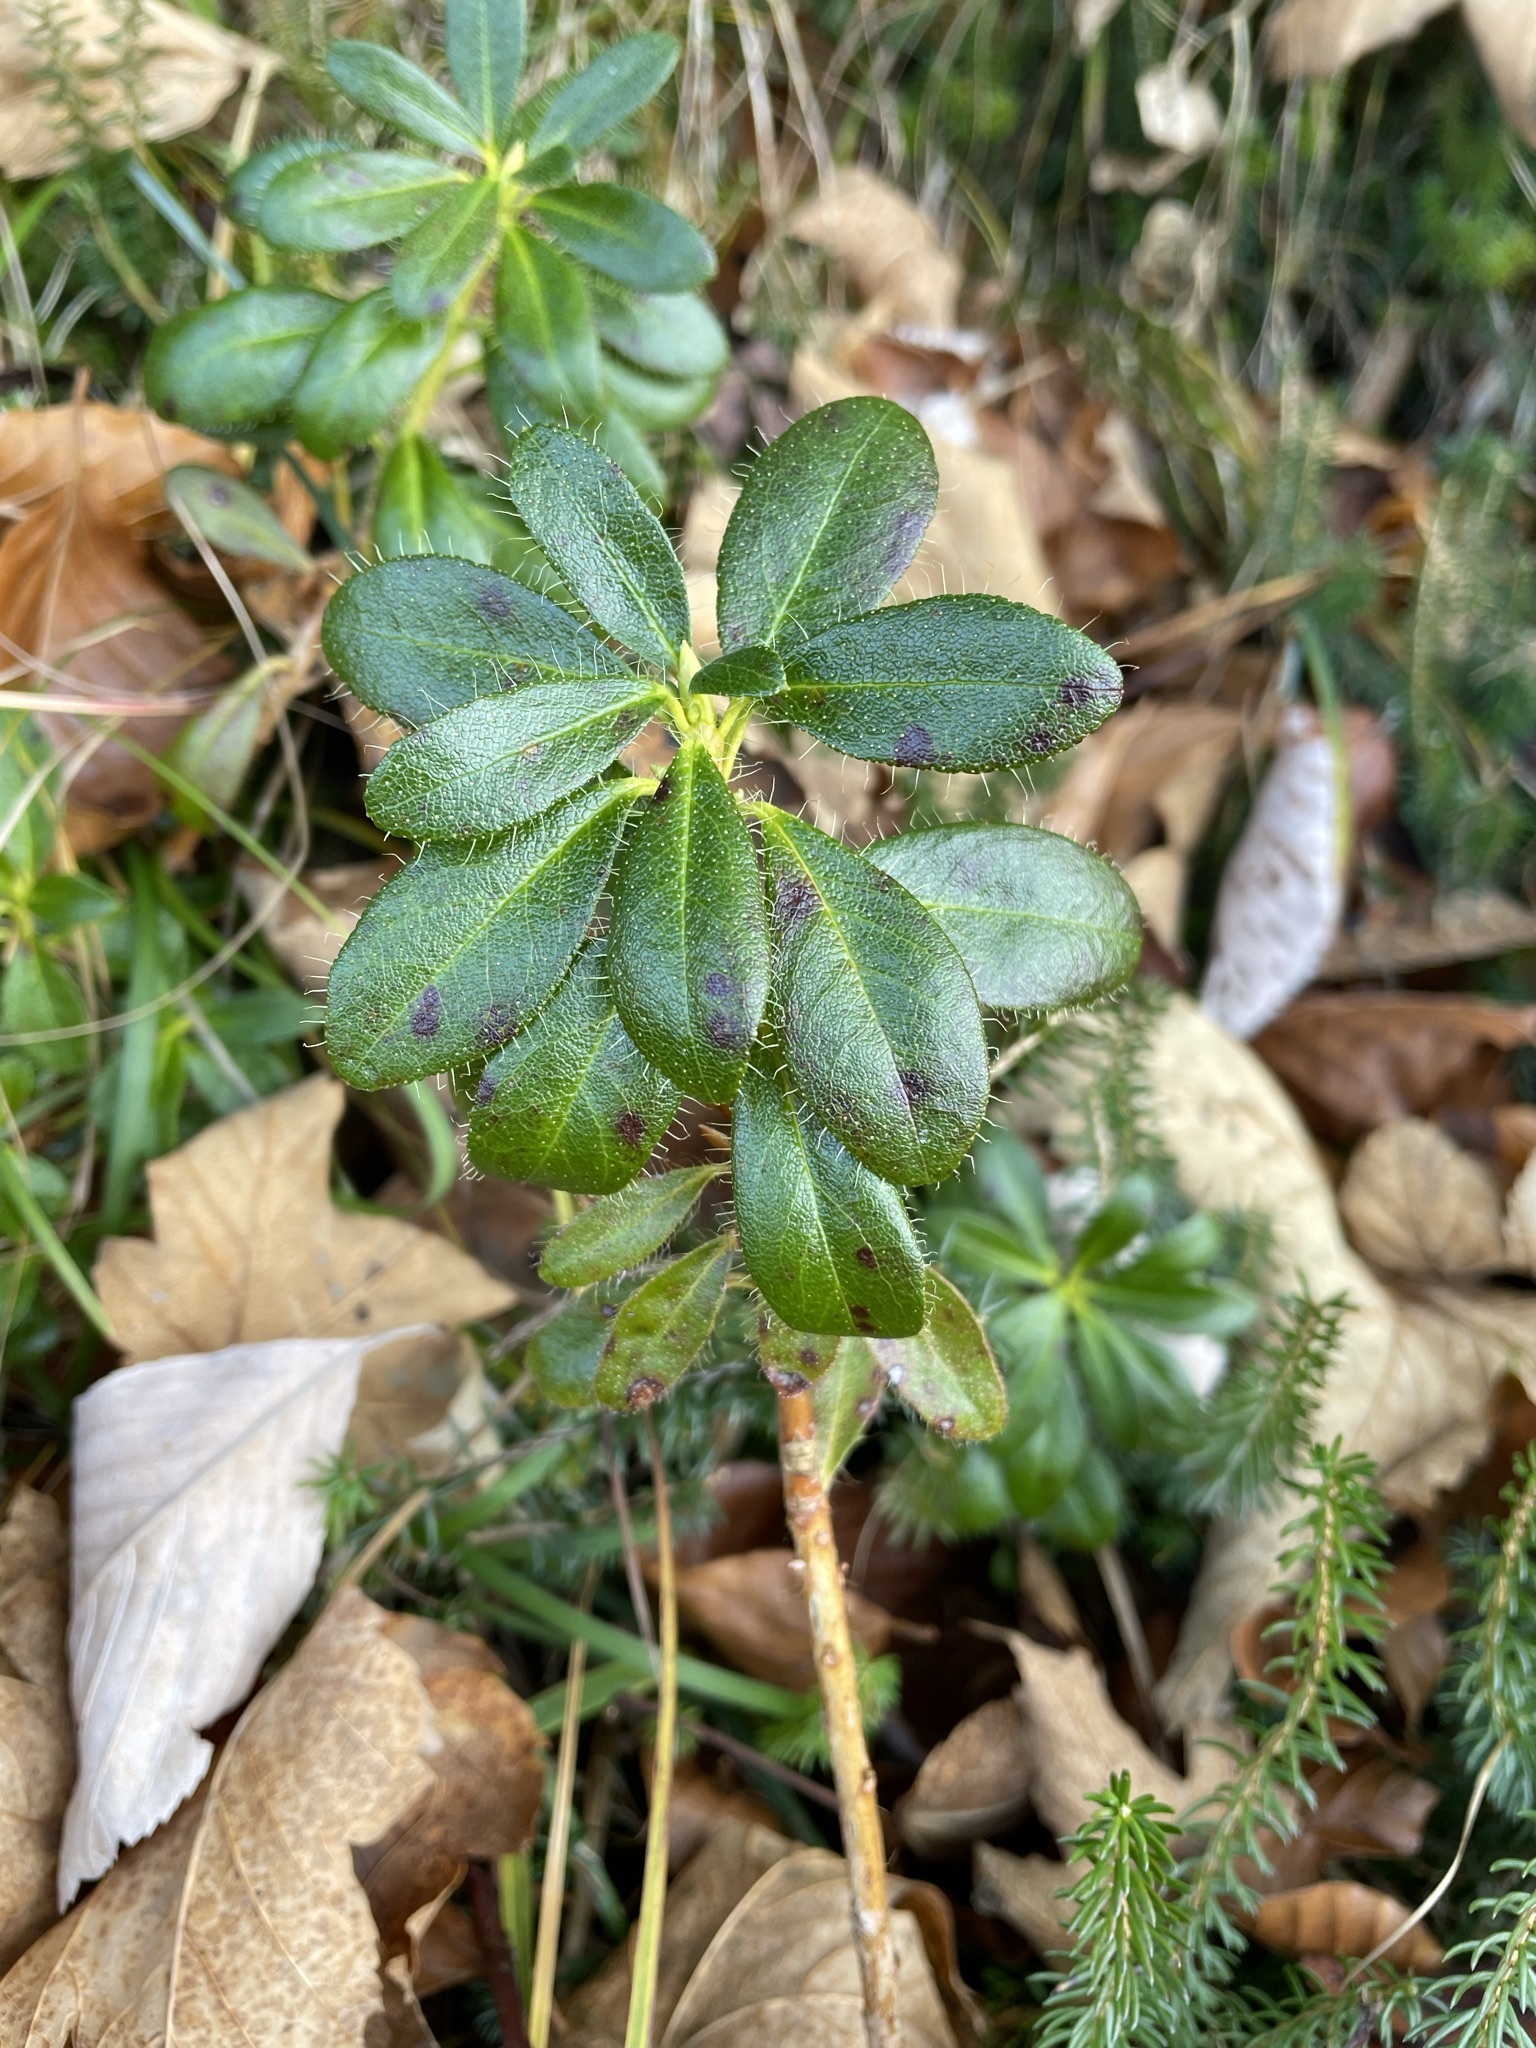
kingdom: Plantae
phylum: Tracheophyta
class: Magnoliopsida
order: Ericales
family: Ericaceae
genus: Rhododendron
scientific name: Rhododendron hirsutum
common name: Hairy alpenrose
